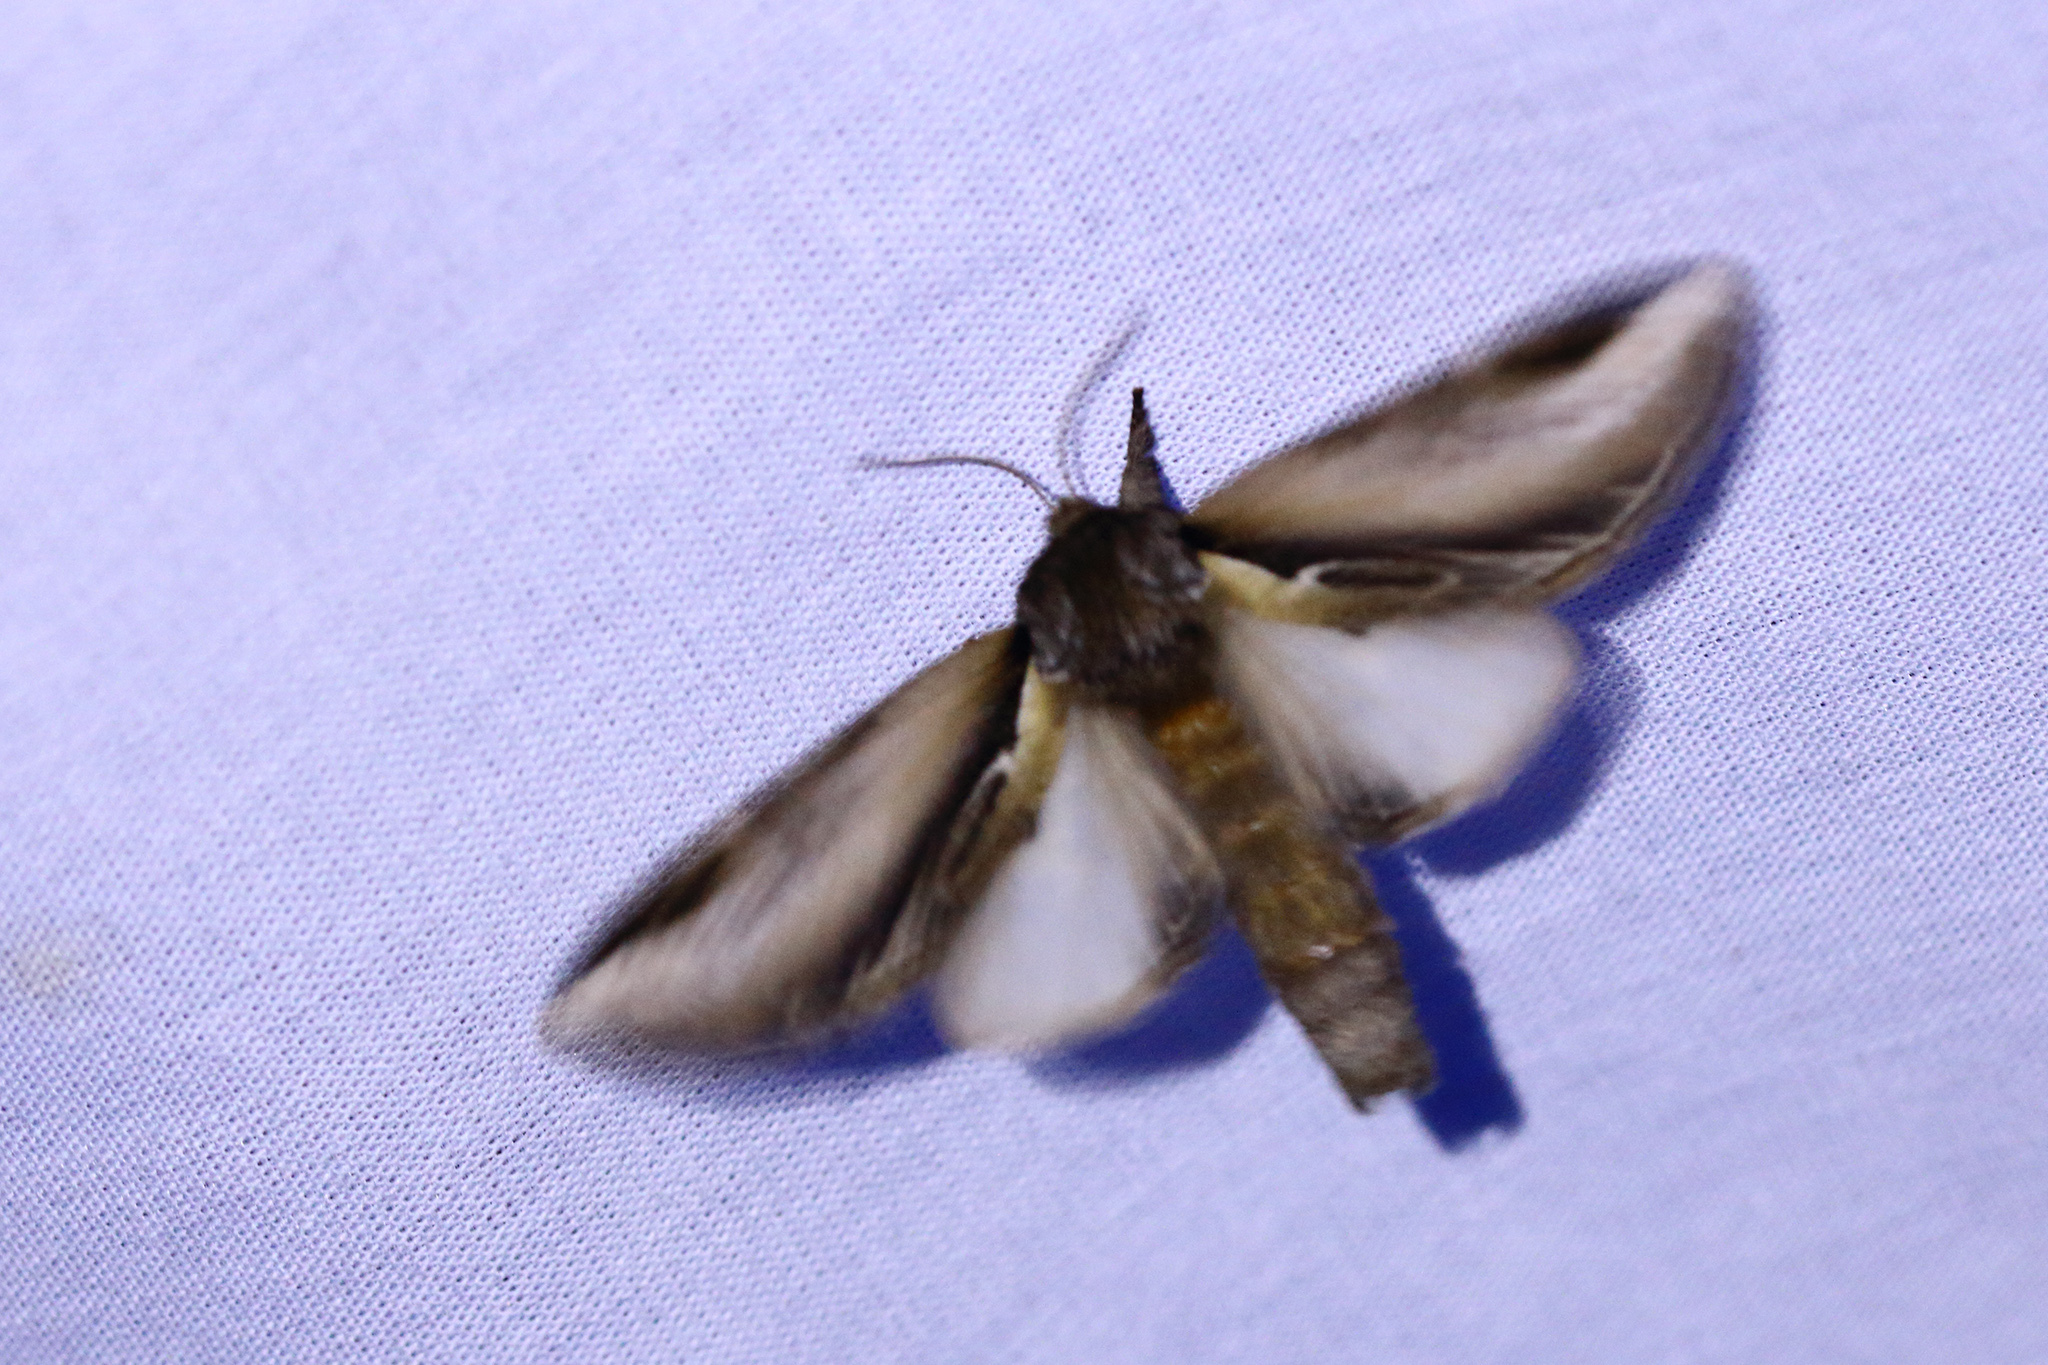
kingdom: Animalia
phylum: Arthropoda
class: Insecta
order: Lepidoptera
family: Notodontidae
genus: Pheosia
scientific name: Pheosia tremula
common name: Swallow prominent
